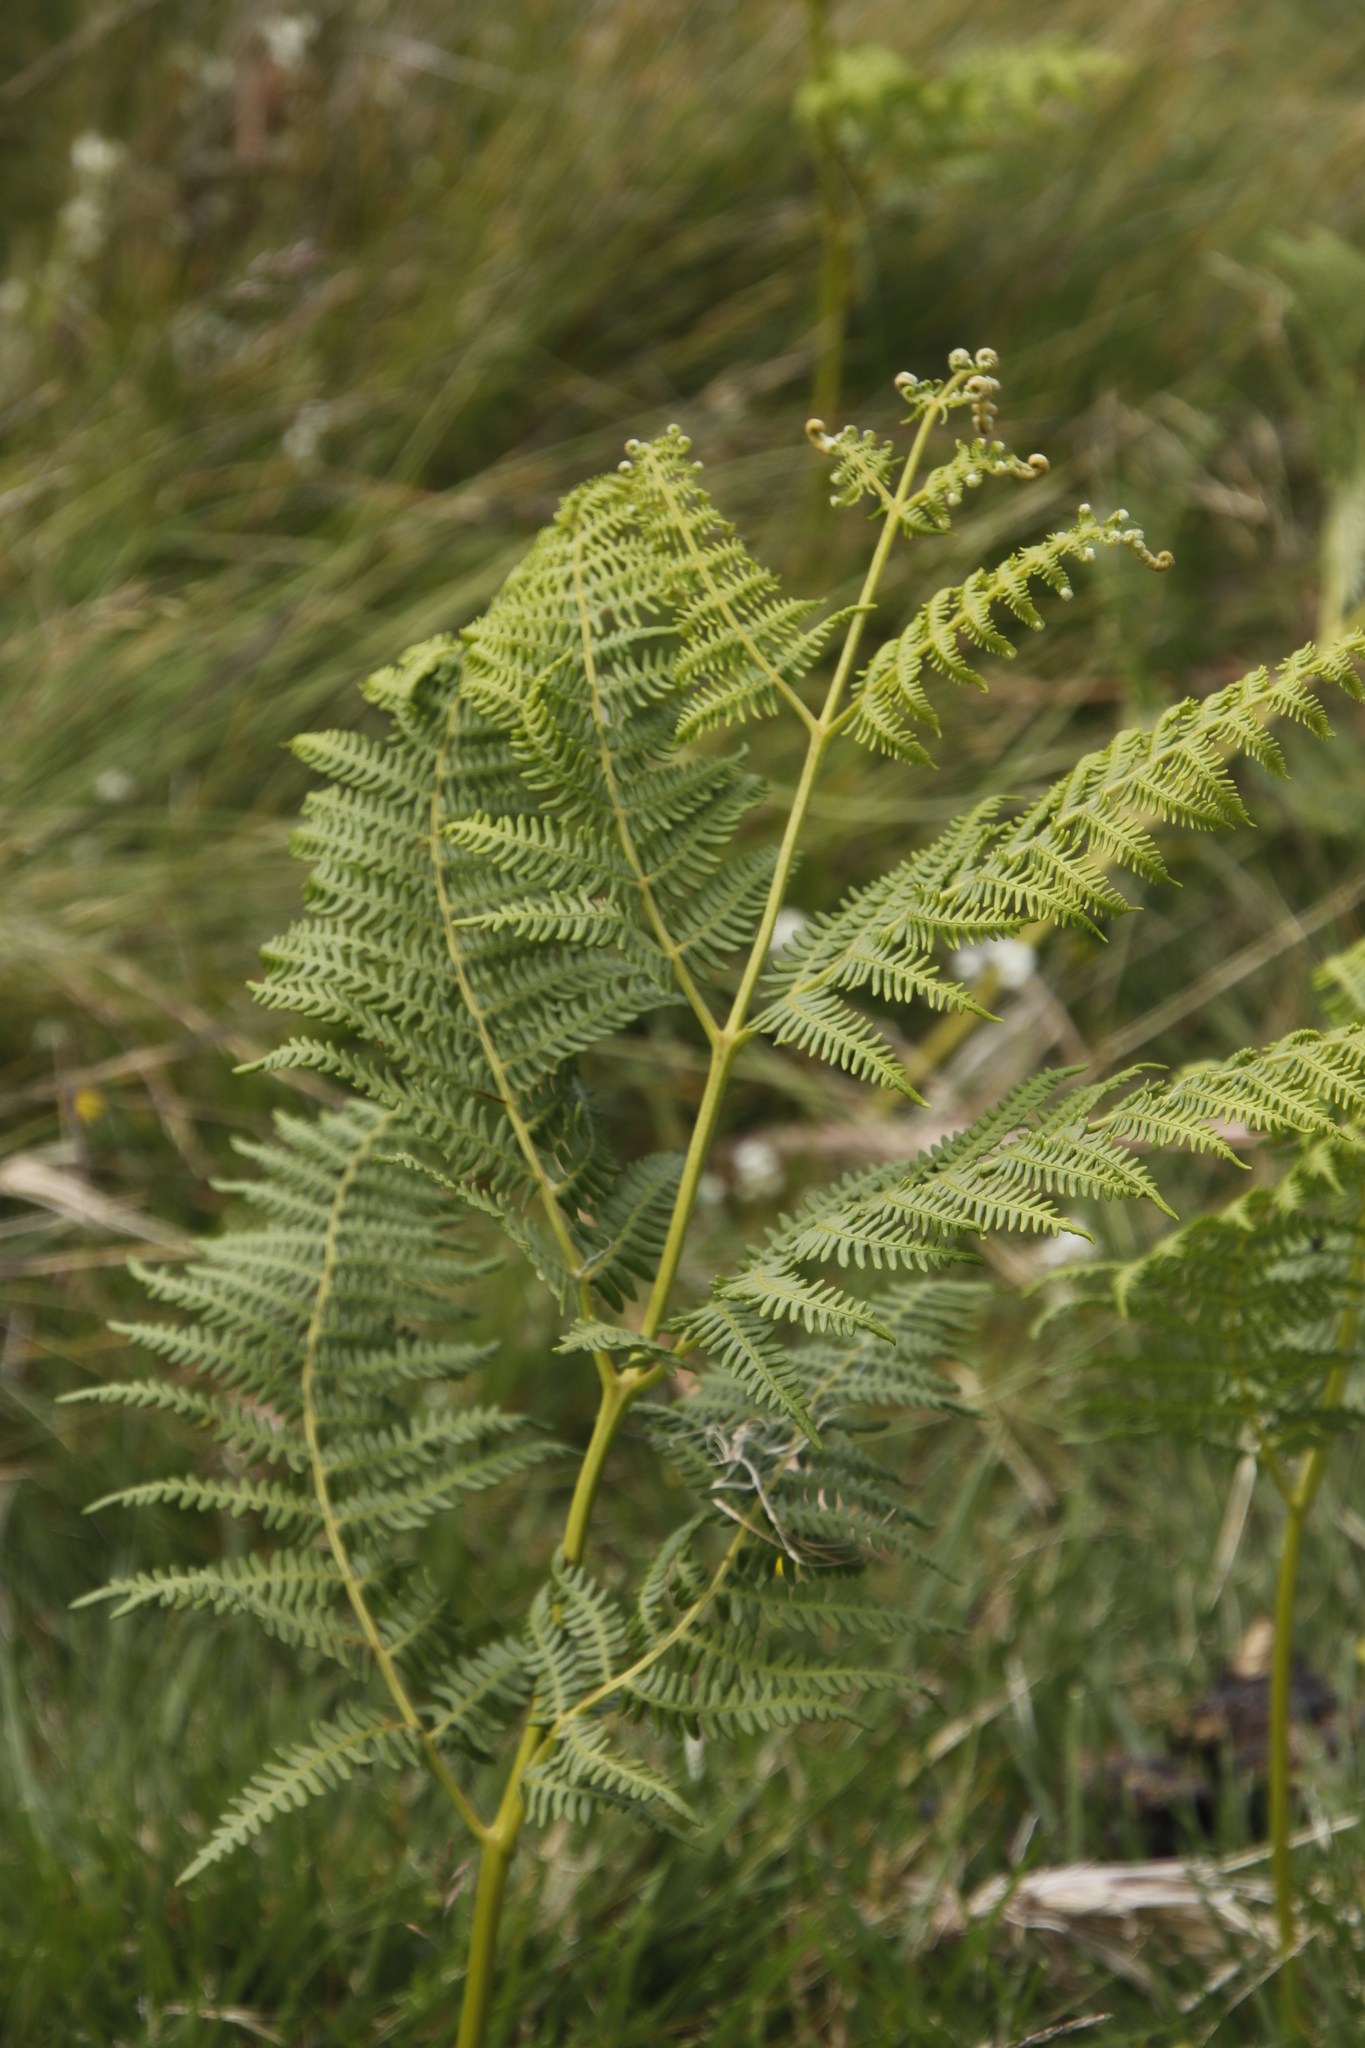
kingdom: Plantae
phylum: Tracheophyta
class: Polypodiopsida
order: Polypodiales
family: Dennstaedtiaceae
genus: Pteridium
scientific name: Pteridium aquilinum
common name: Bracken
